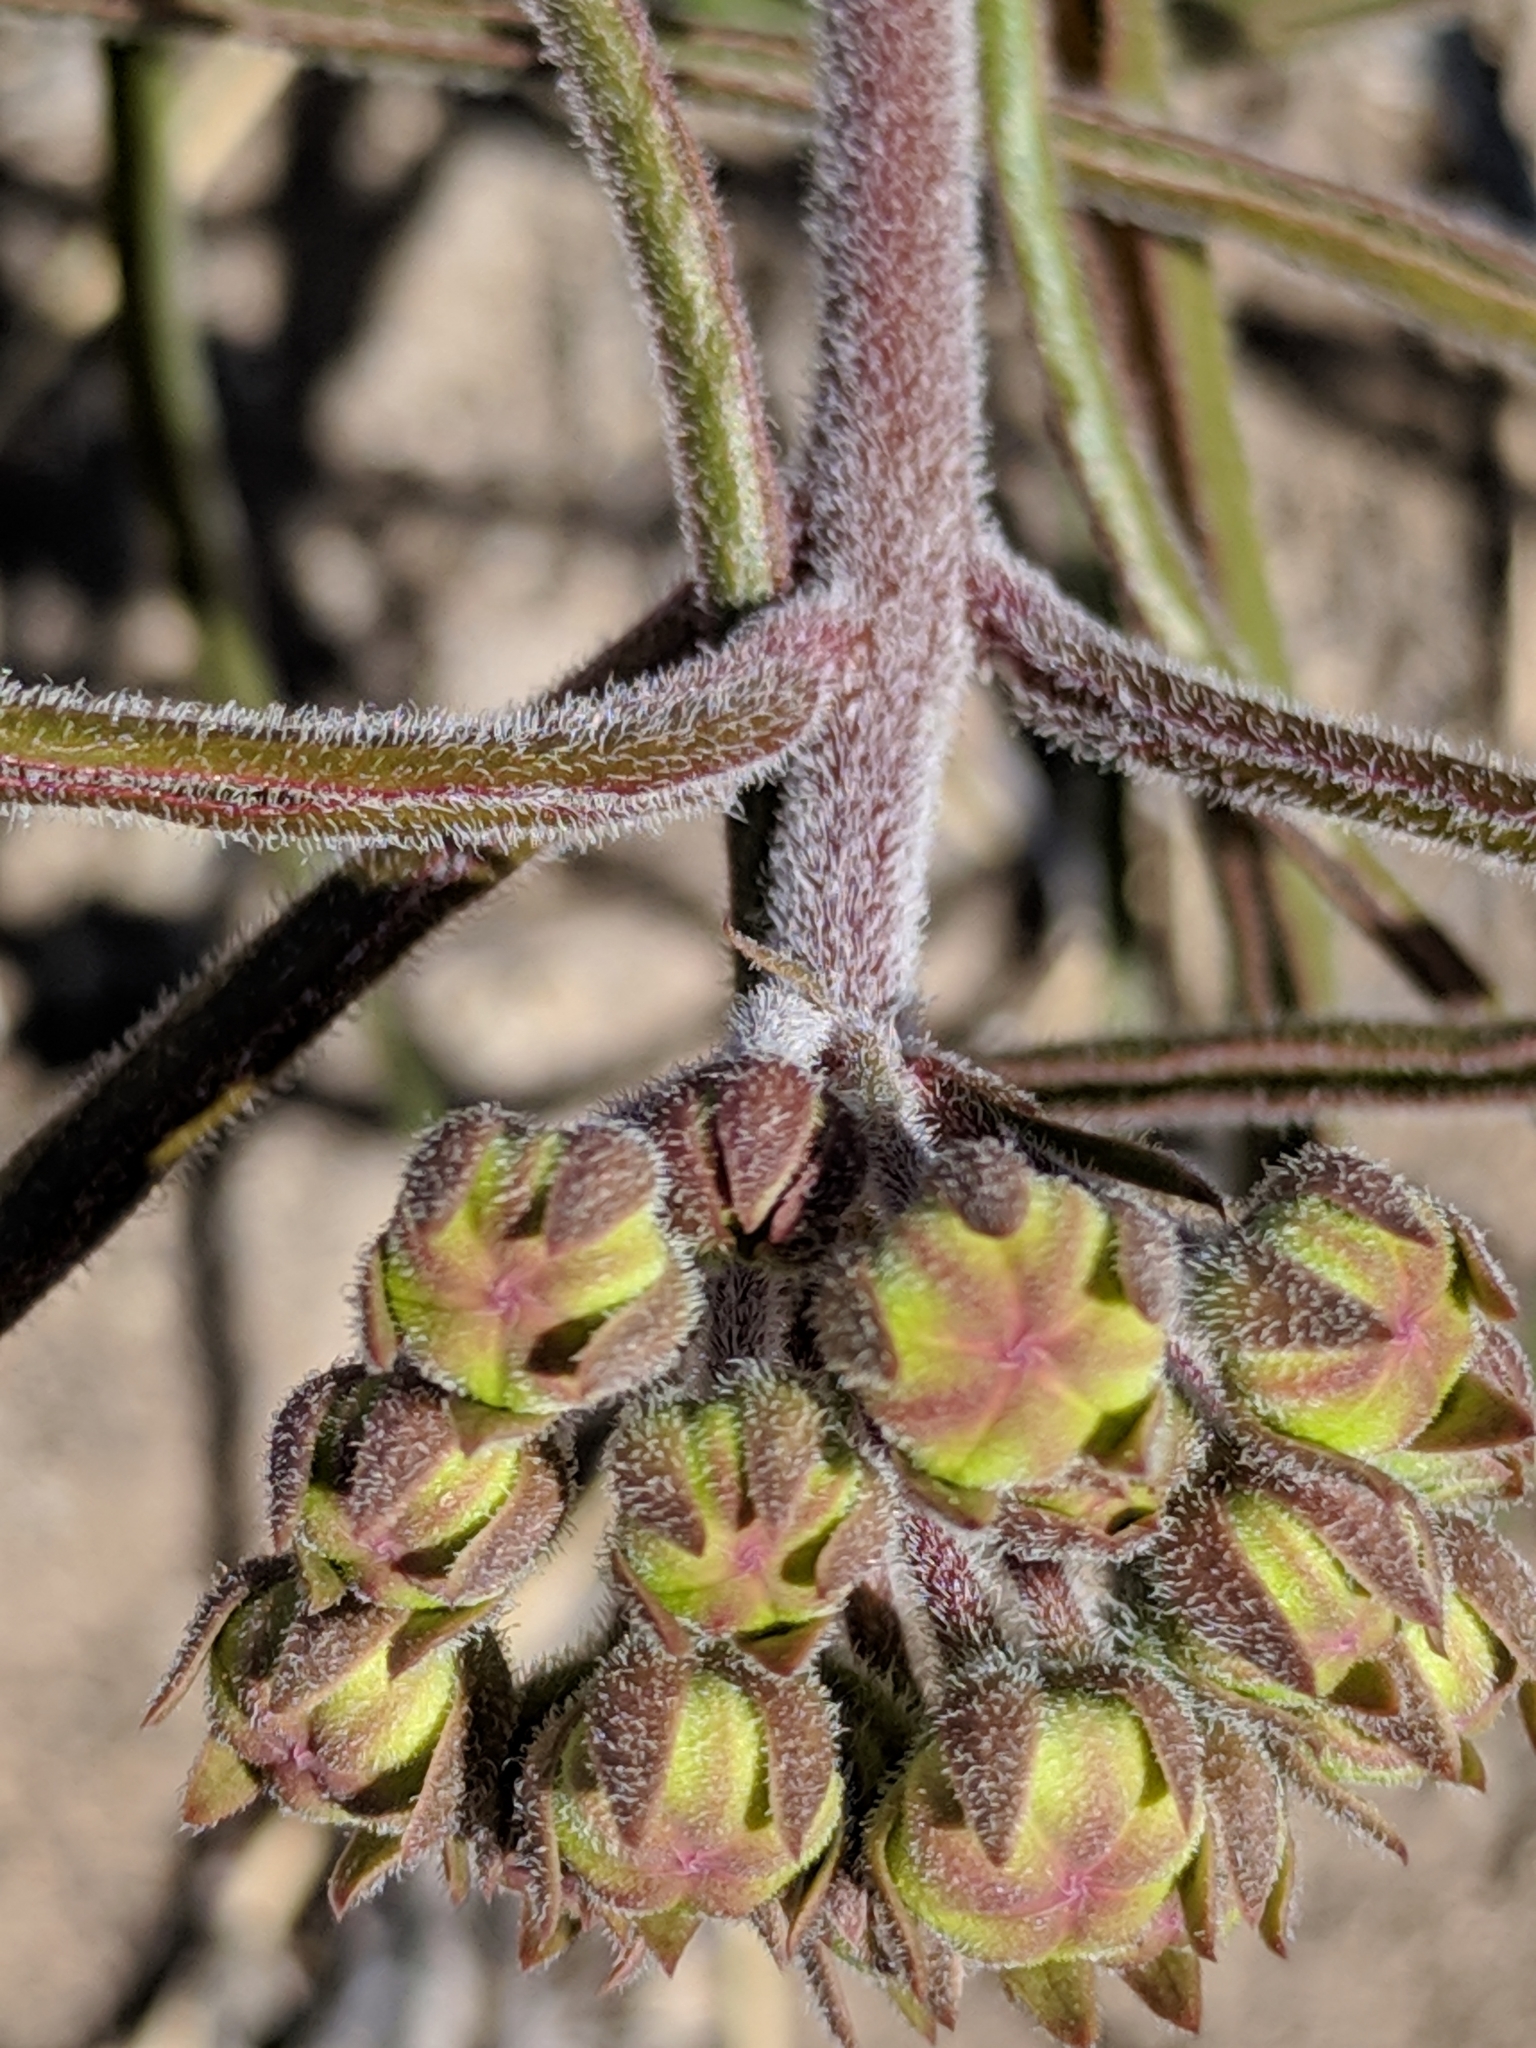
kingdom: Plantae
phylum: Tracheophyta
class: Magnoliopsida
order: Gentianales
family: Apocynaceae
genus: Asclepias
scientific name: Asclepias asperula
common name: Antelope horns
